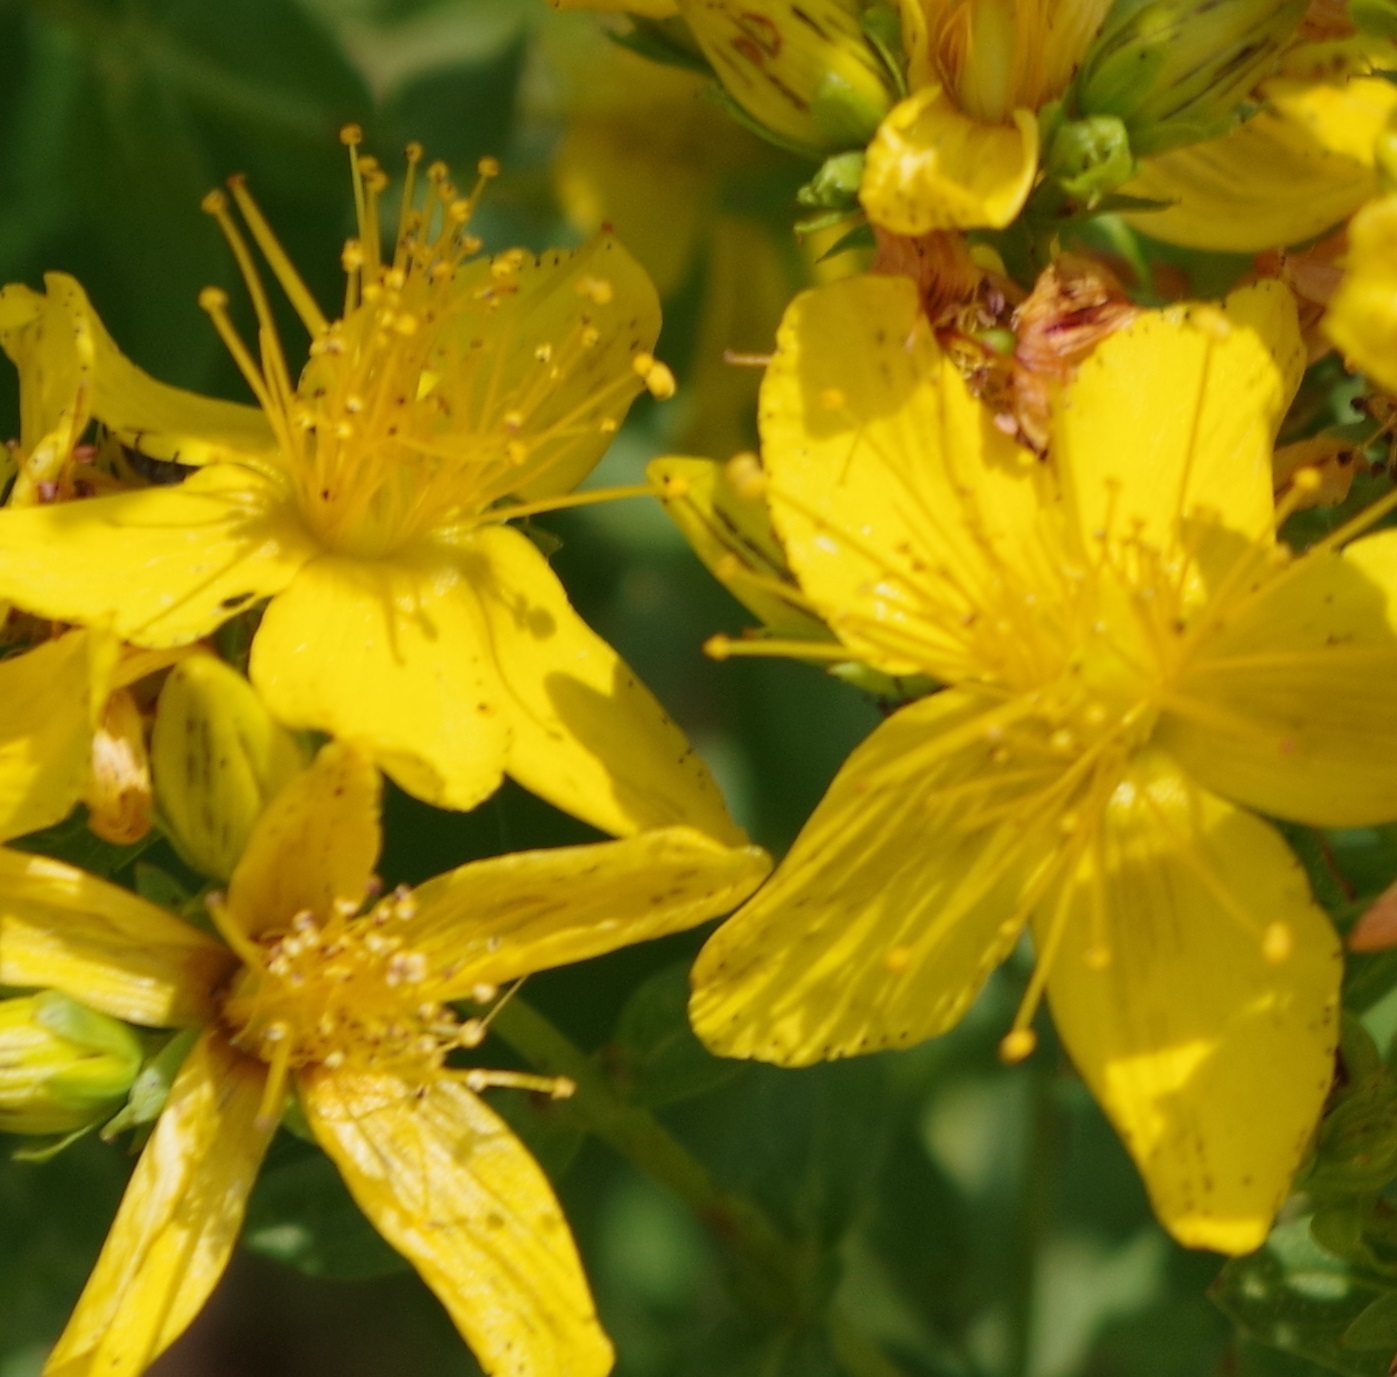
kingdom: Plantae
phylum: Tracheophyta
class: Magnoliopsida
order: Malpighiales
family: Hypericaceae
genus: Hypericum
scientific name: Hypericum desetangsii
